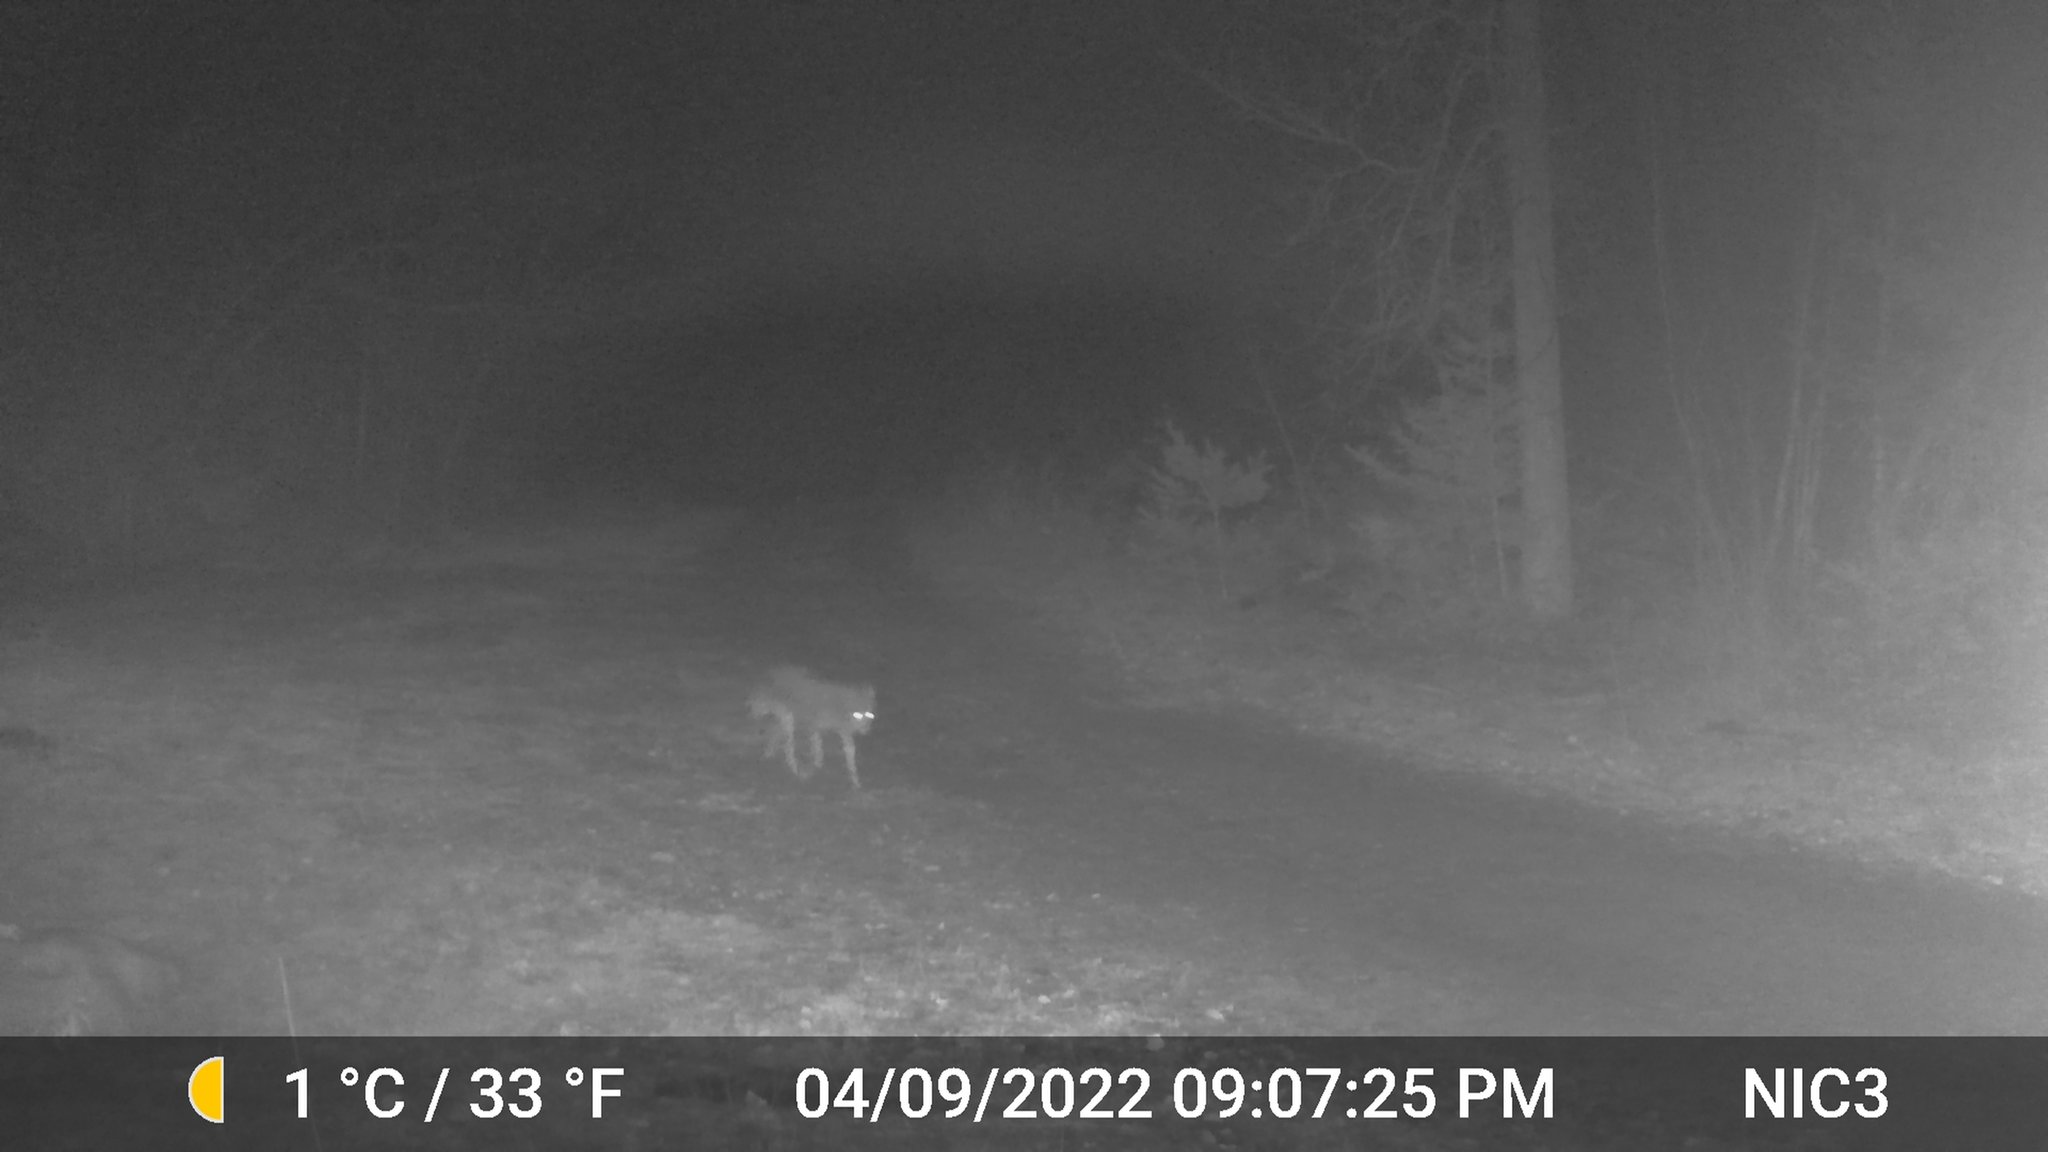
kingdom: Animalia
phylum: Chordata
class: Mammalia
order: Carnivora
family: Canidae
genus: Canis
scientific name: Canis latrans
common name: Coyote
